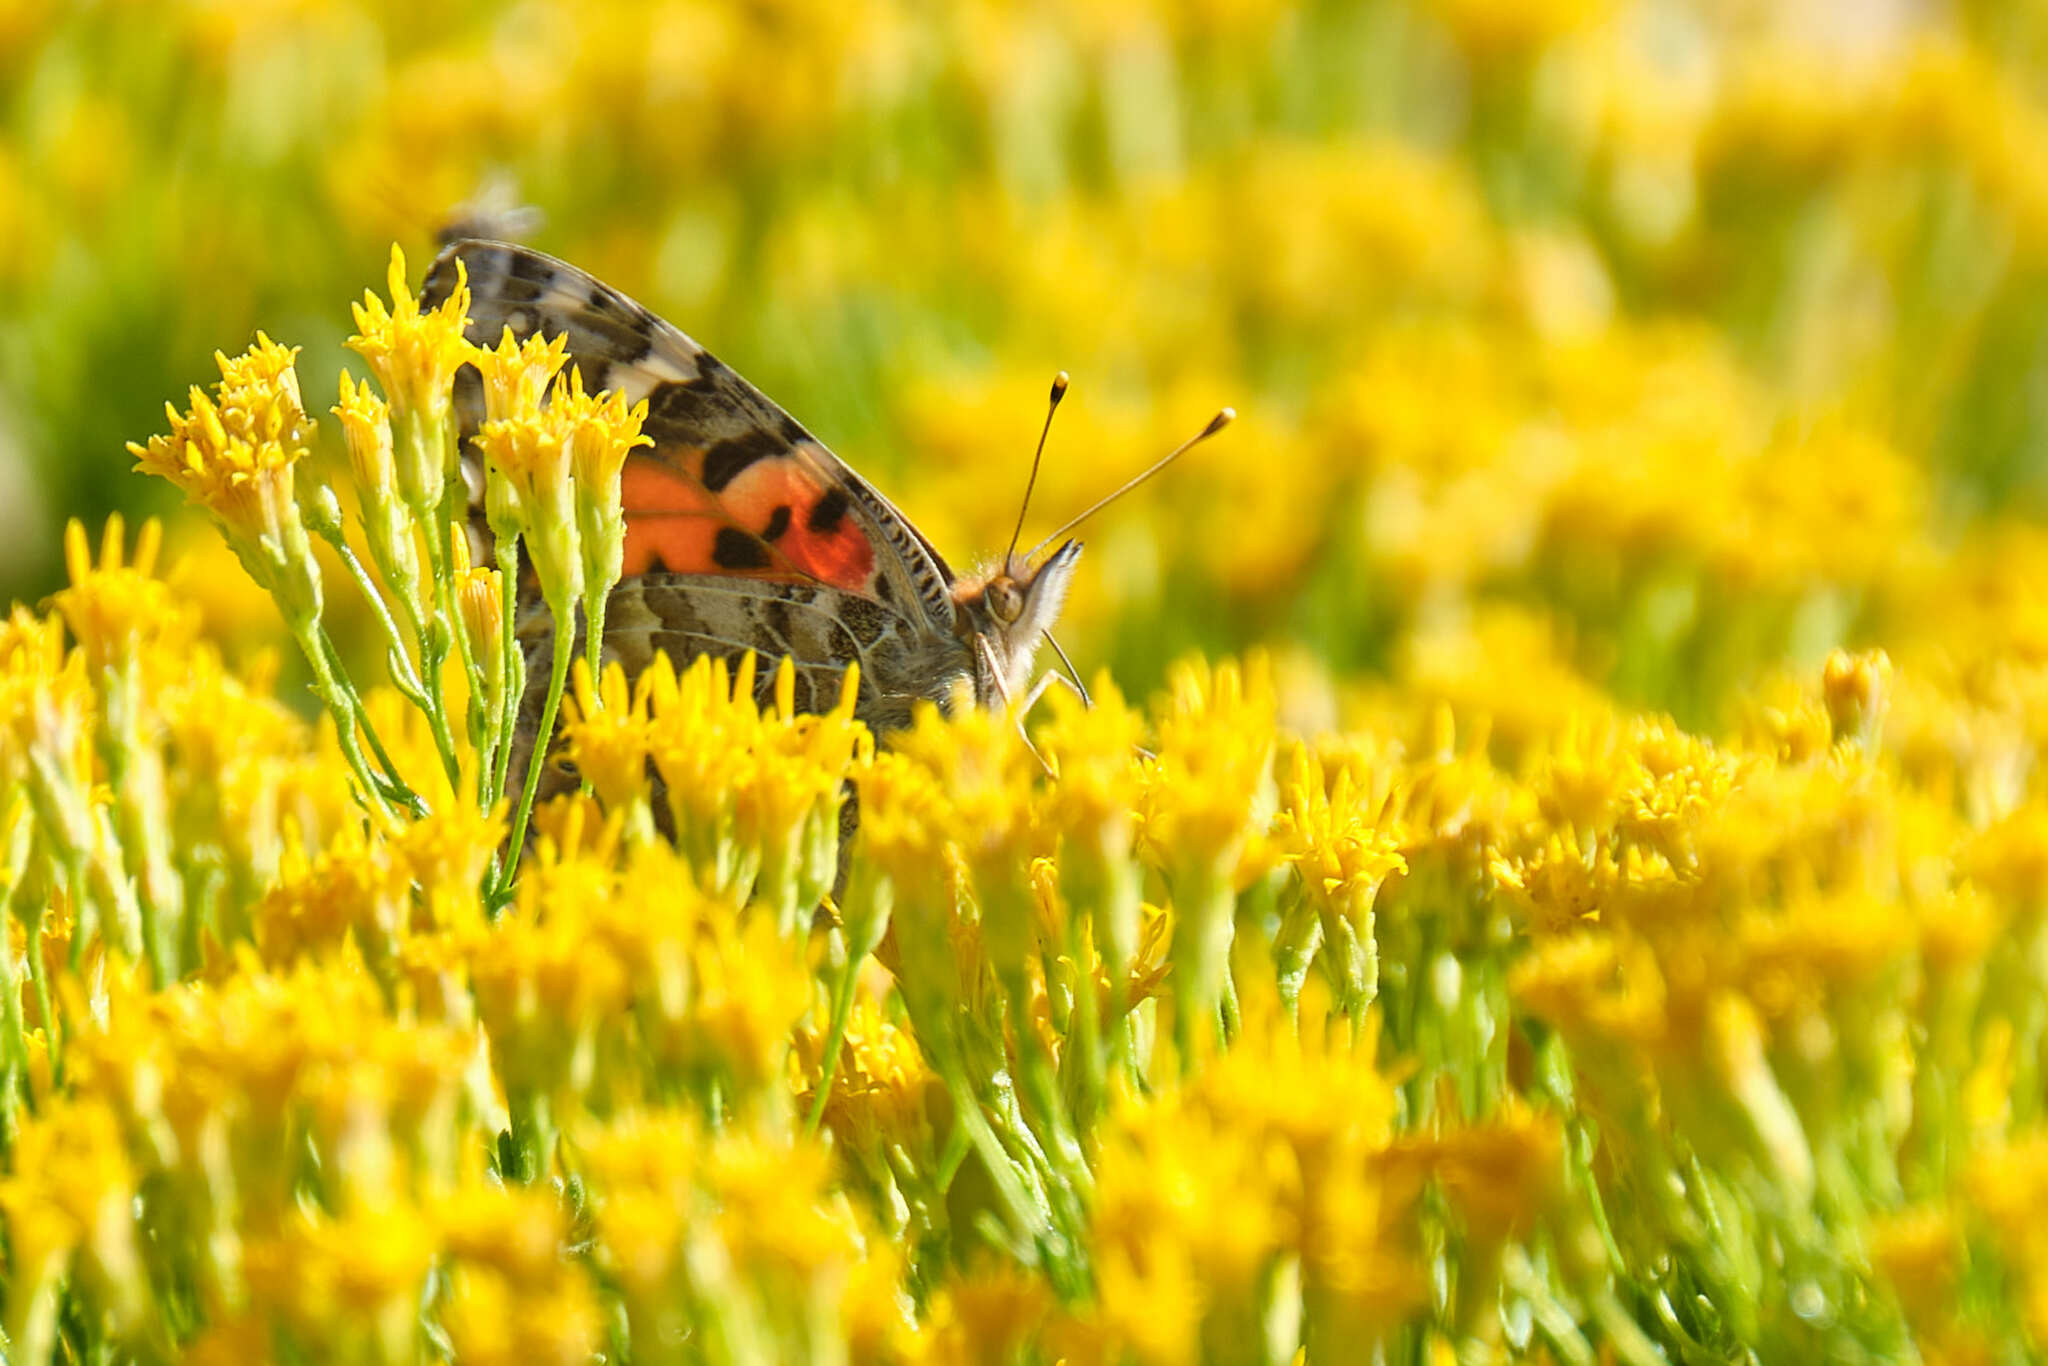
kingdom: Animalia
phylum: Arthropoda
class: Insecta
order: Lepidoptera
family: Nymphalidae
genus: Vanessa
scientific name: Vanessa cardui
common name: Painted lady
